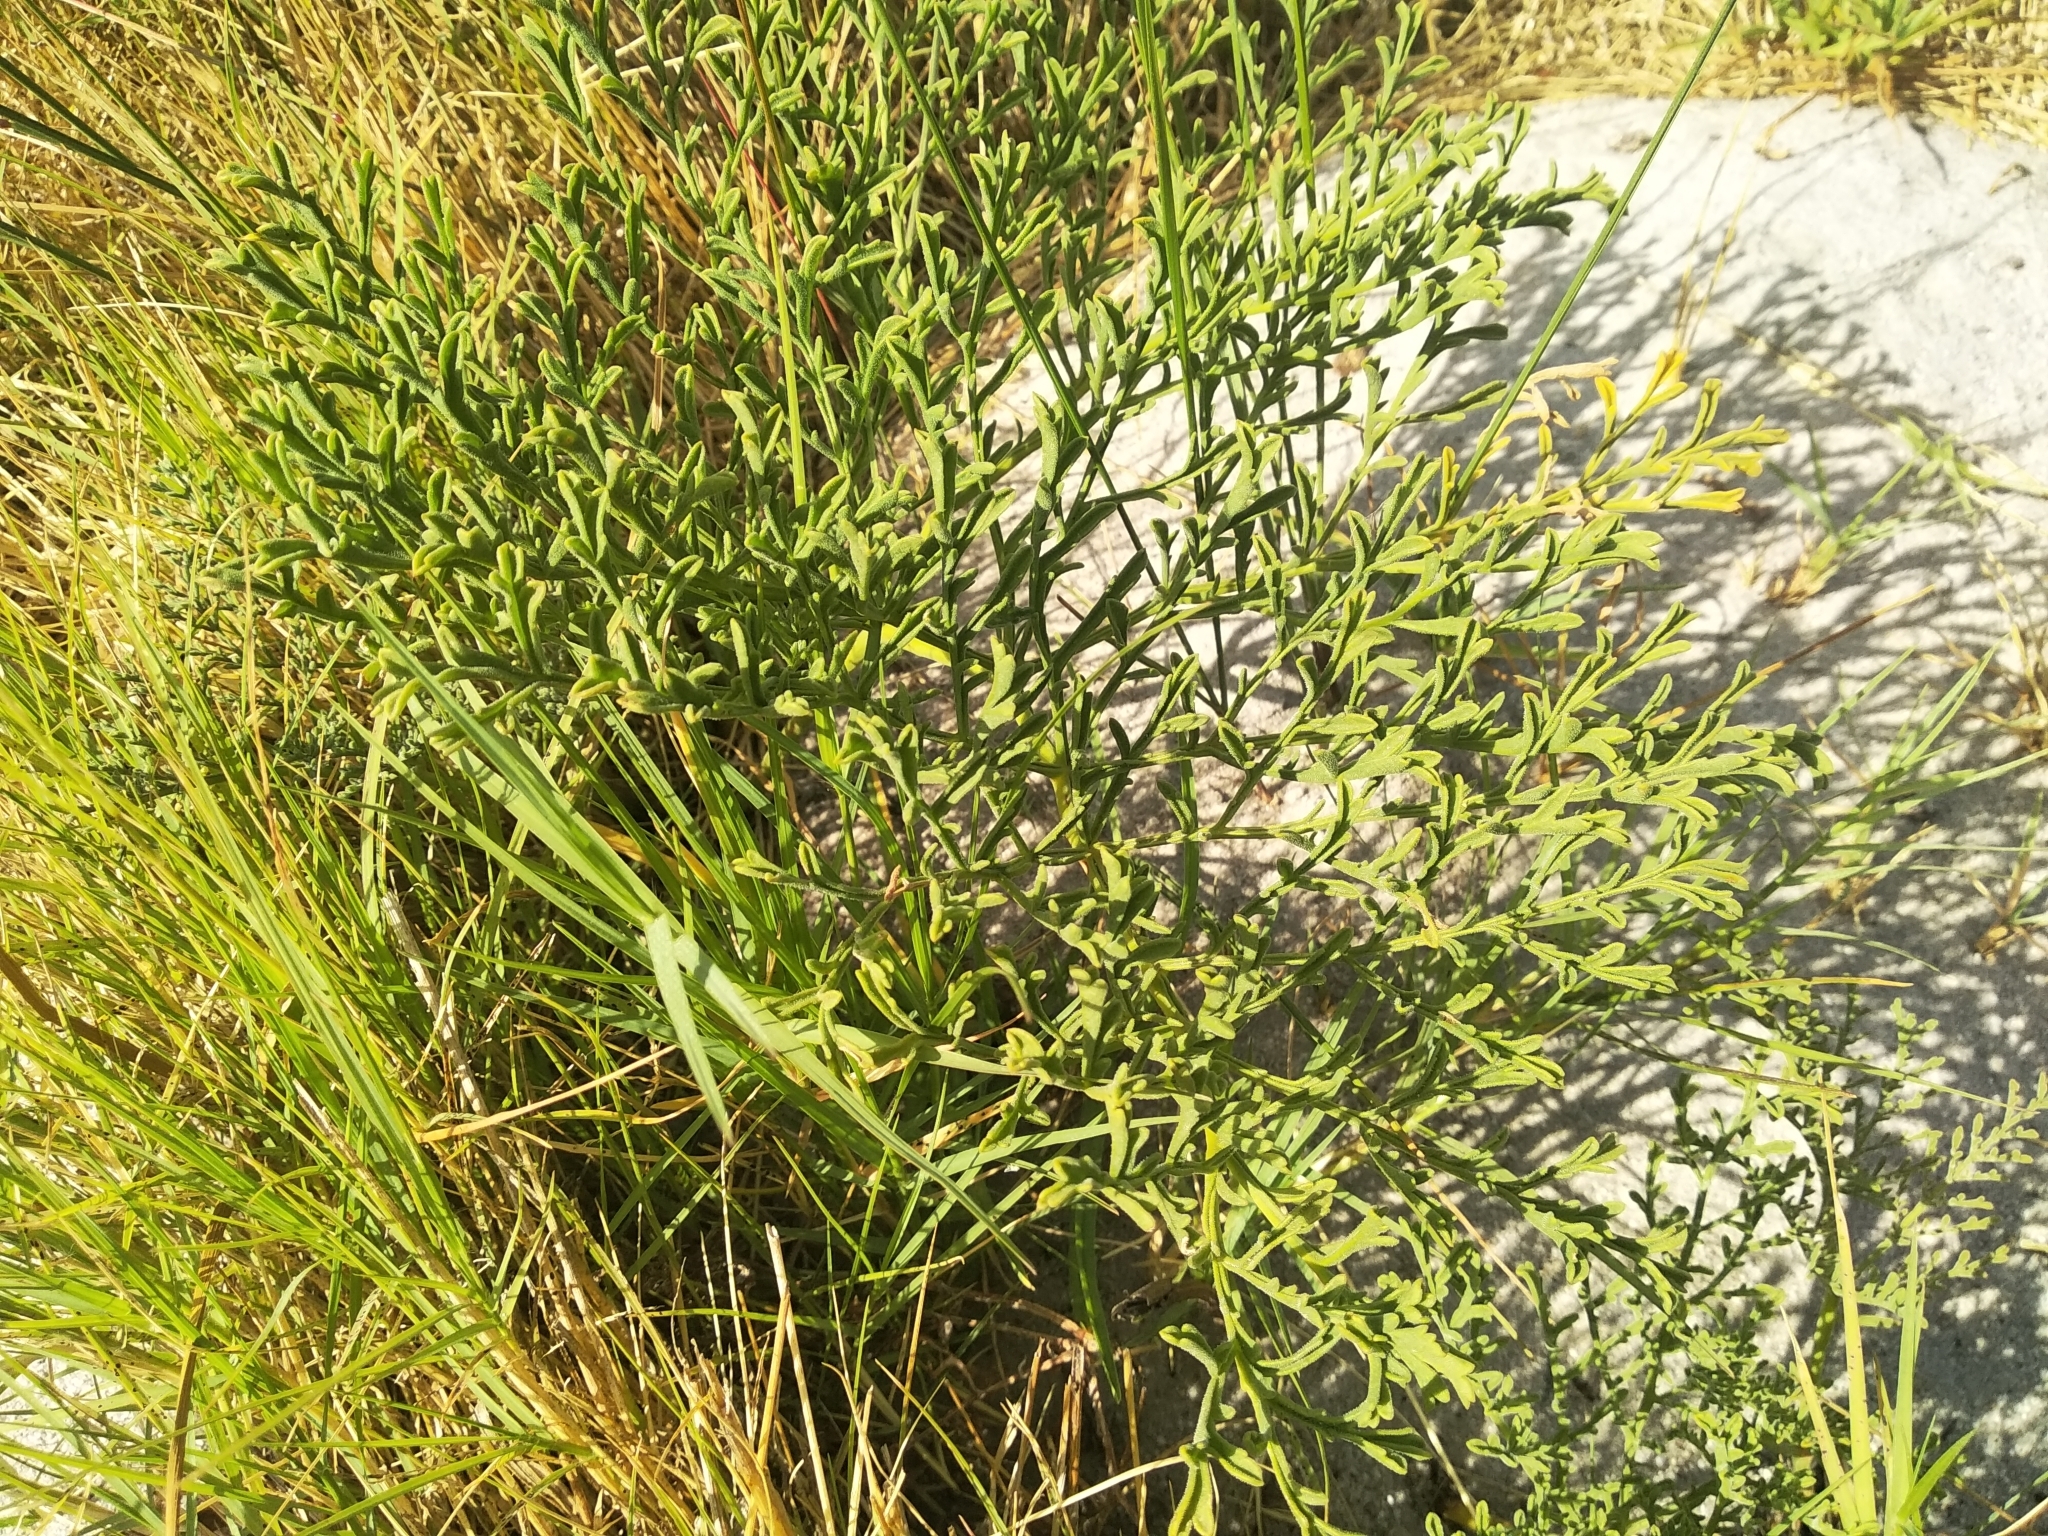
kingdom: Plantae
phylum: Tracheophyta
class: Magnoliopsida
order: Geraniales
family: Geraniaceae
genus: Pelargonium
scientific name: Pelargonium multiradiatum
